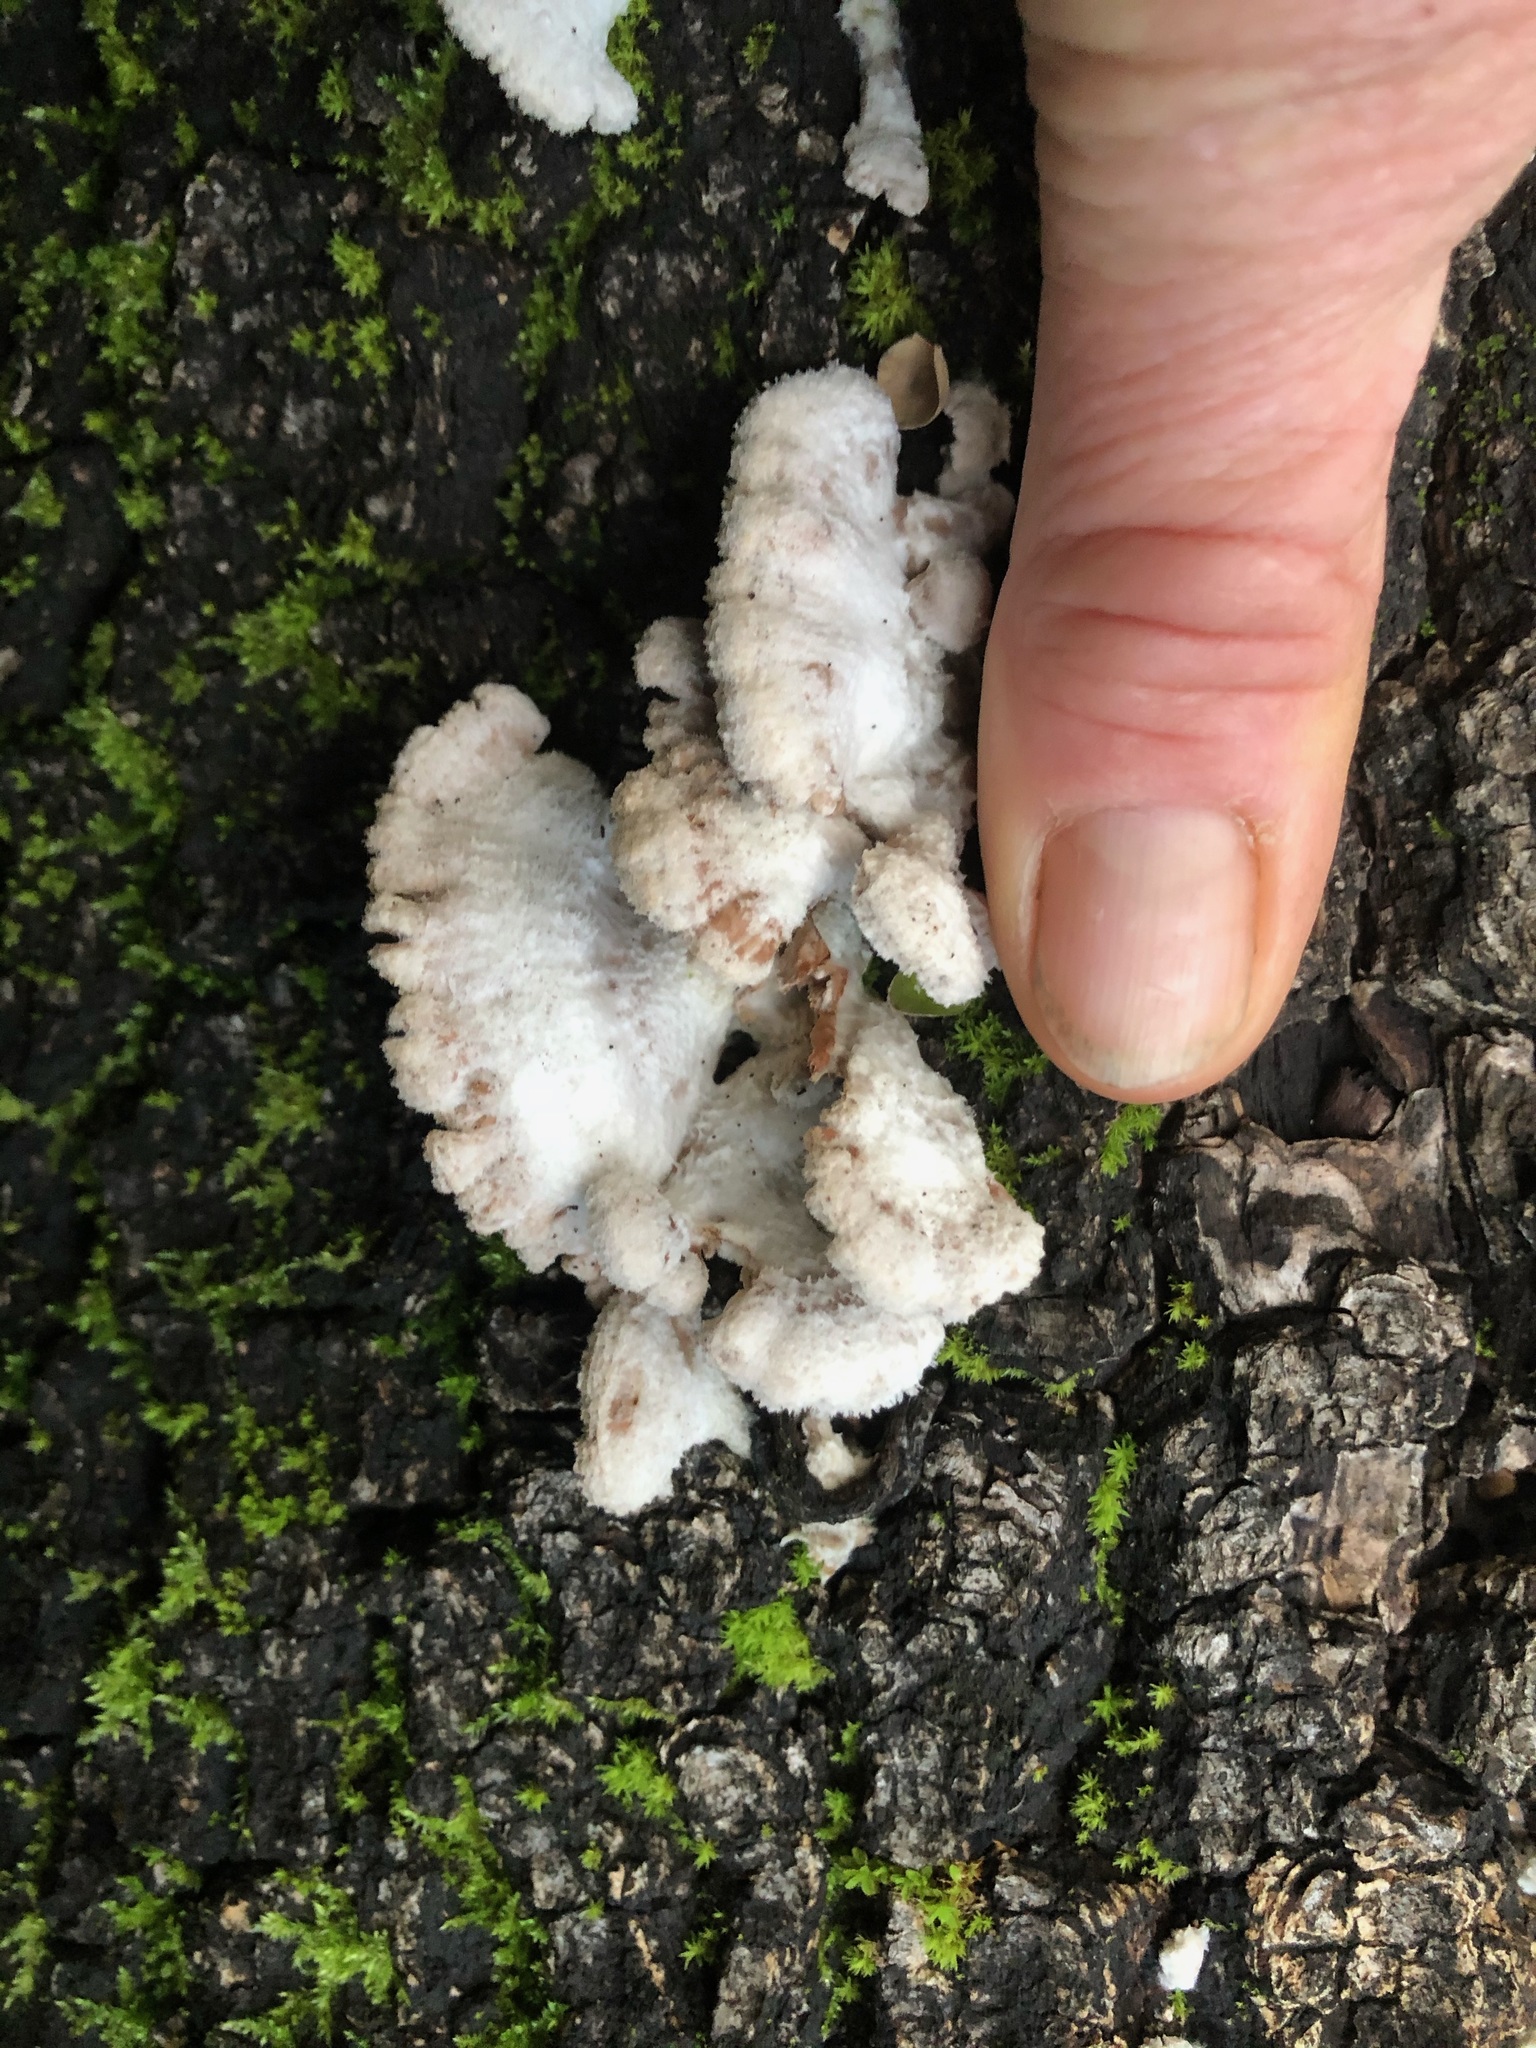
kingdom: Fungi
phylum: Basidiomycota
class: Agaricomycetes
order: Agaricales
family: Schizophyllaceae
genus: Schizophyllum
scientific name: Schizophyllum commune
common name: Common porecrust
